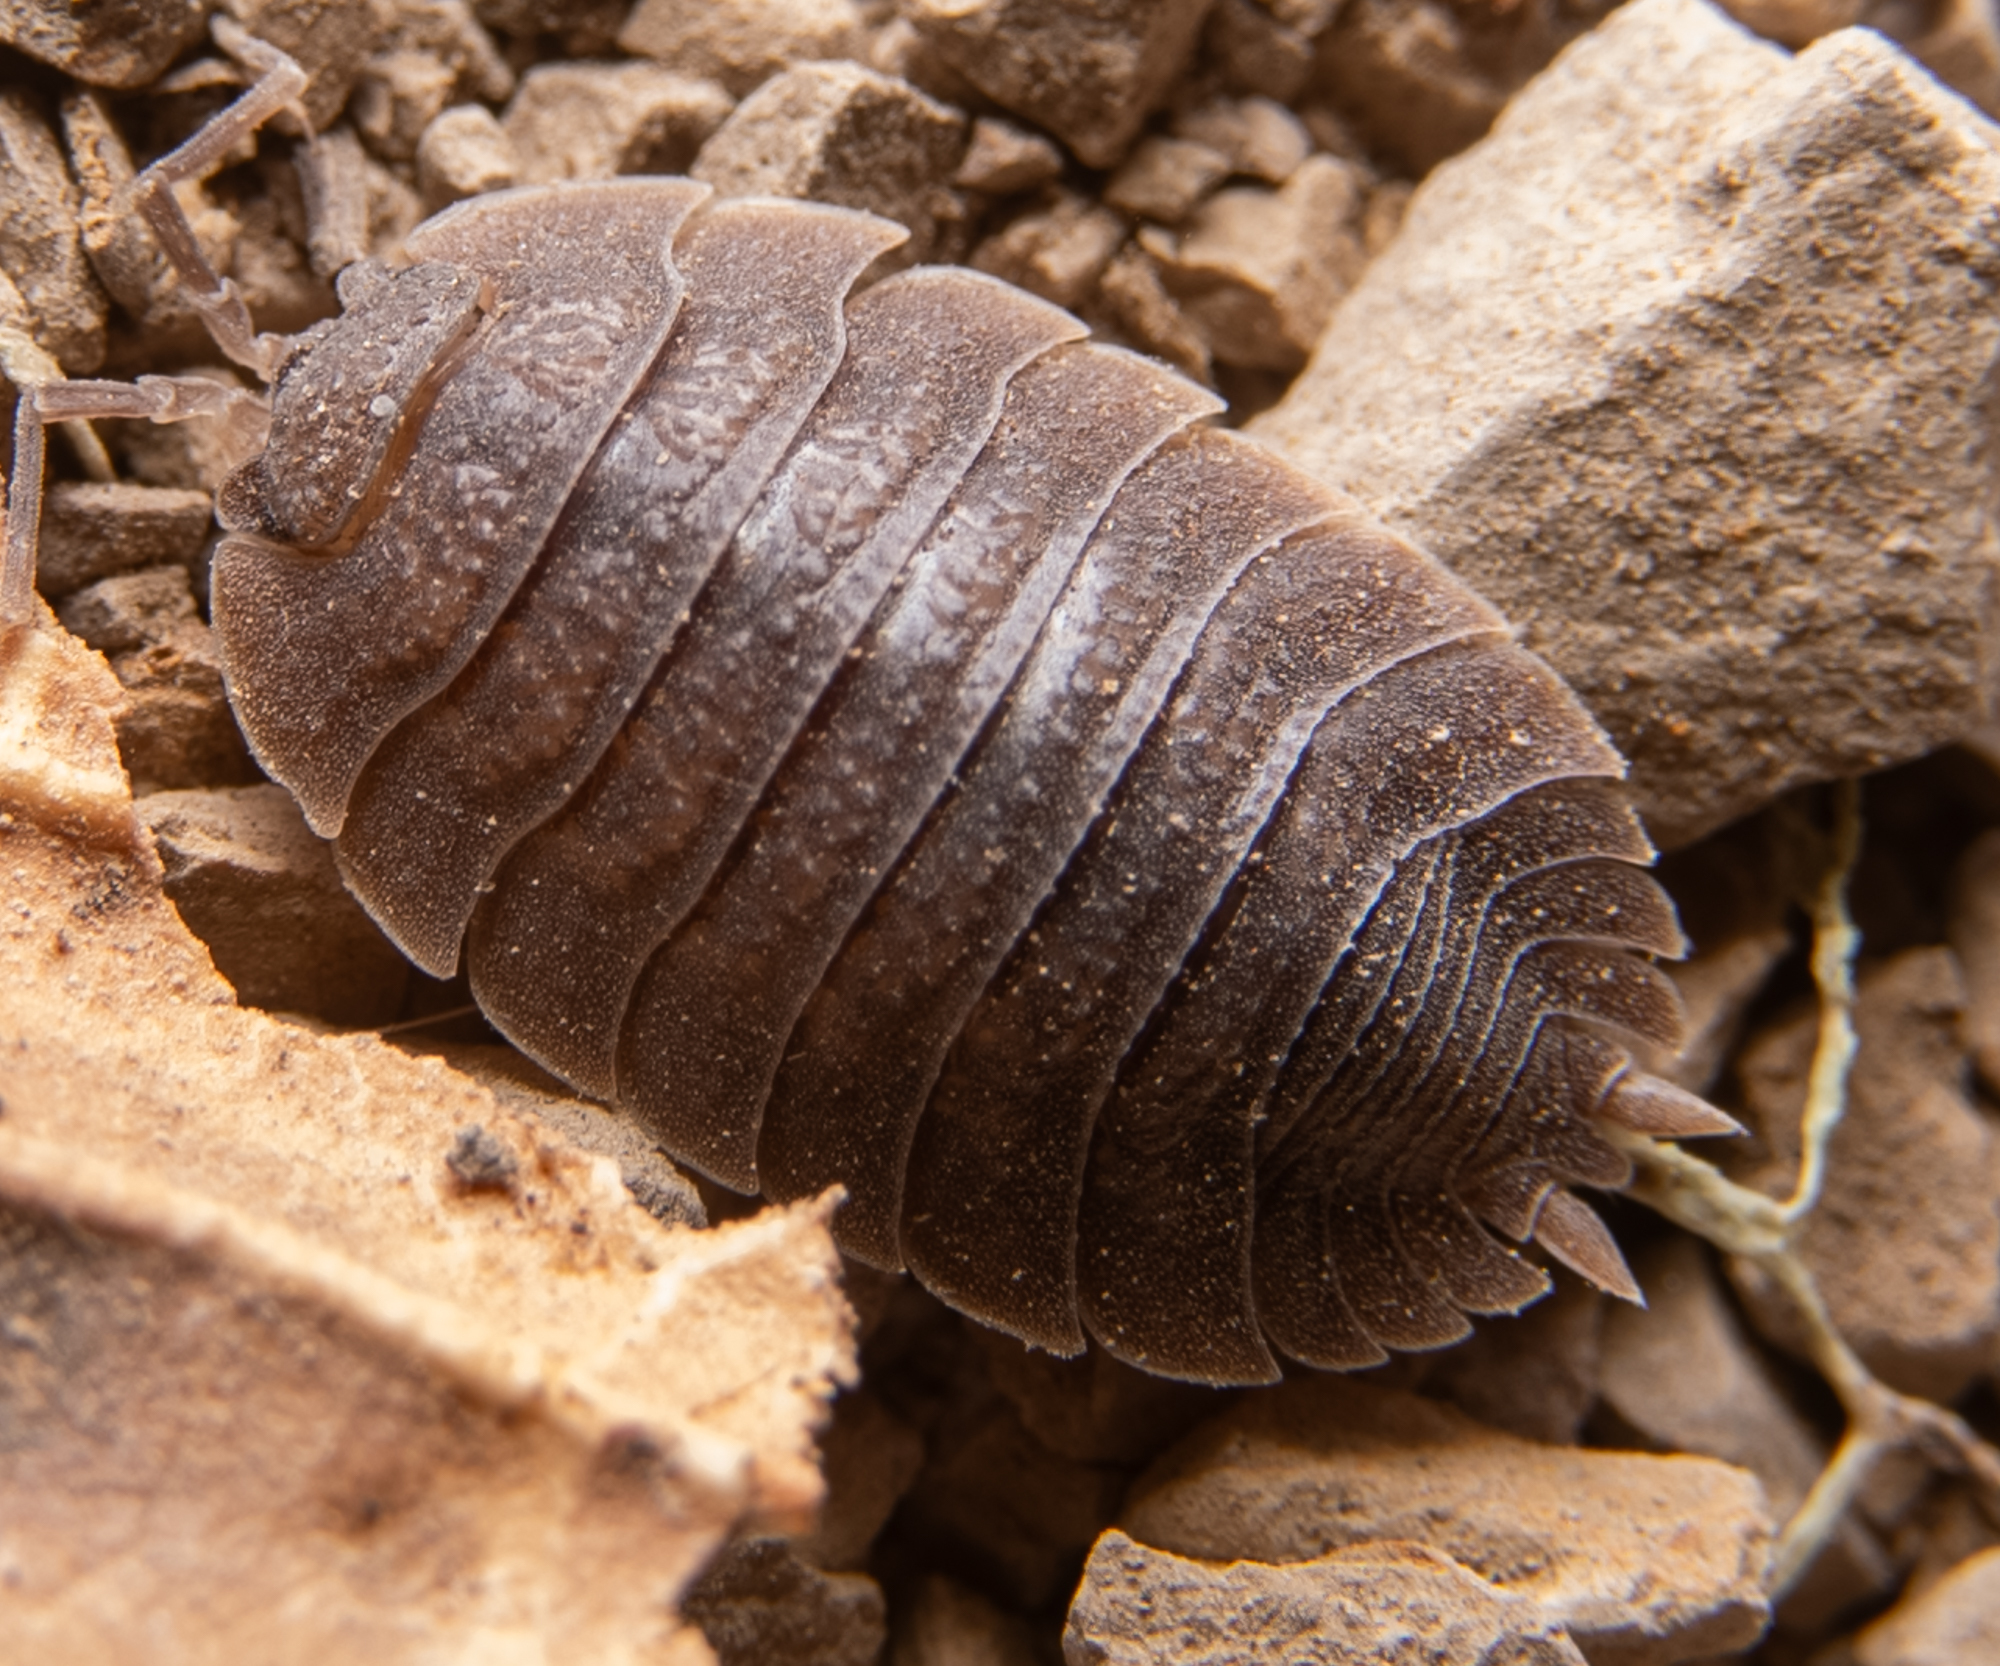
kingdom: Animalia
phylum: Arthropoda
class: Malacostraca
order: Isopoda
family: Porcellionidae
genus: Porcellio
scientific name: Porcellio dilatatus
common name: Isopod
